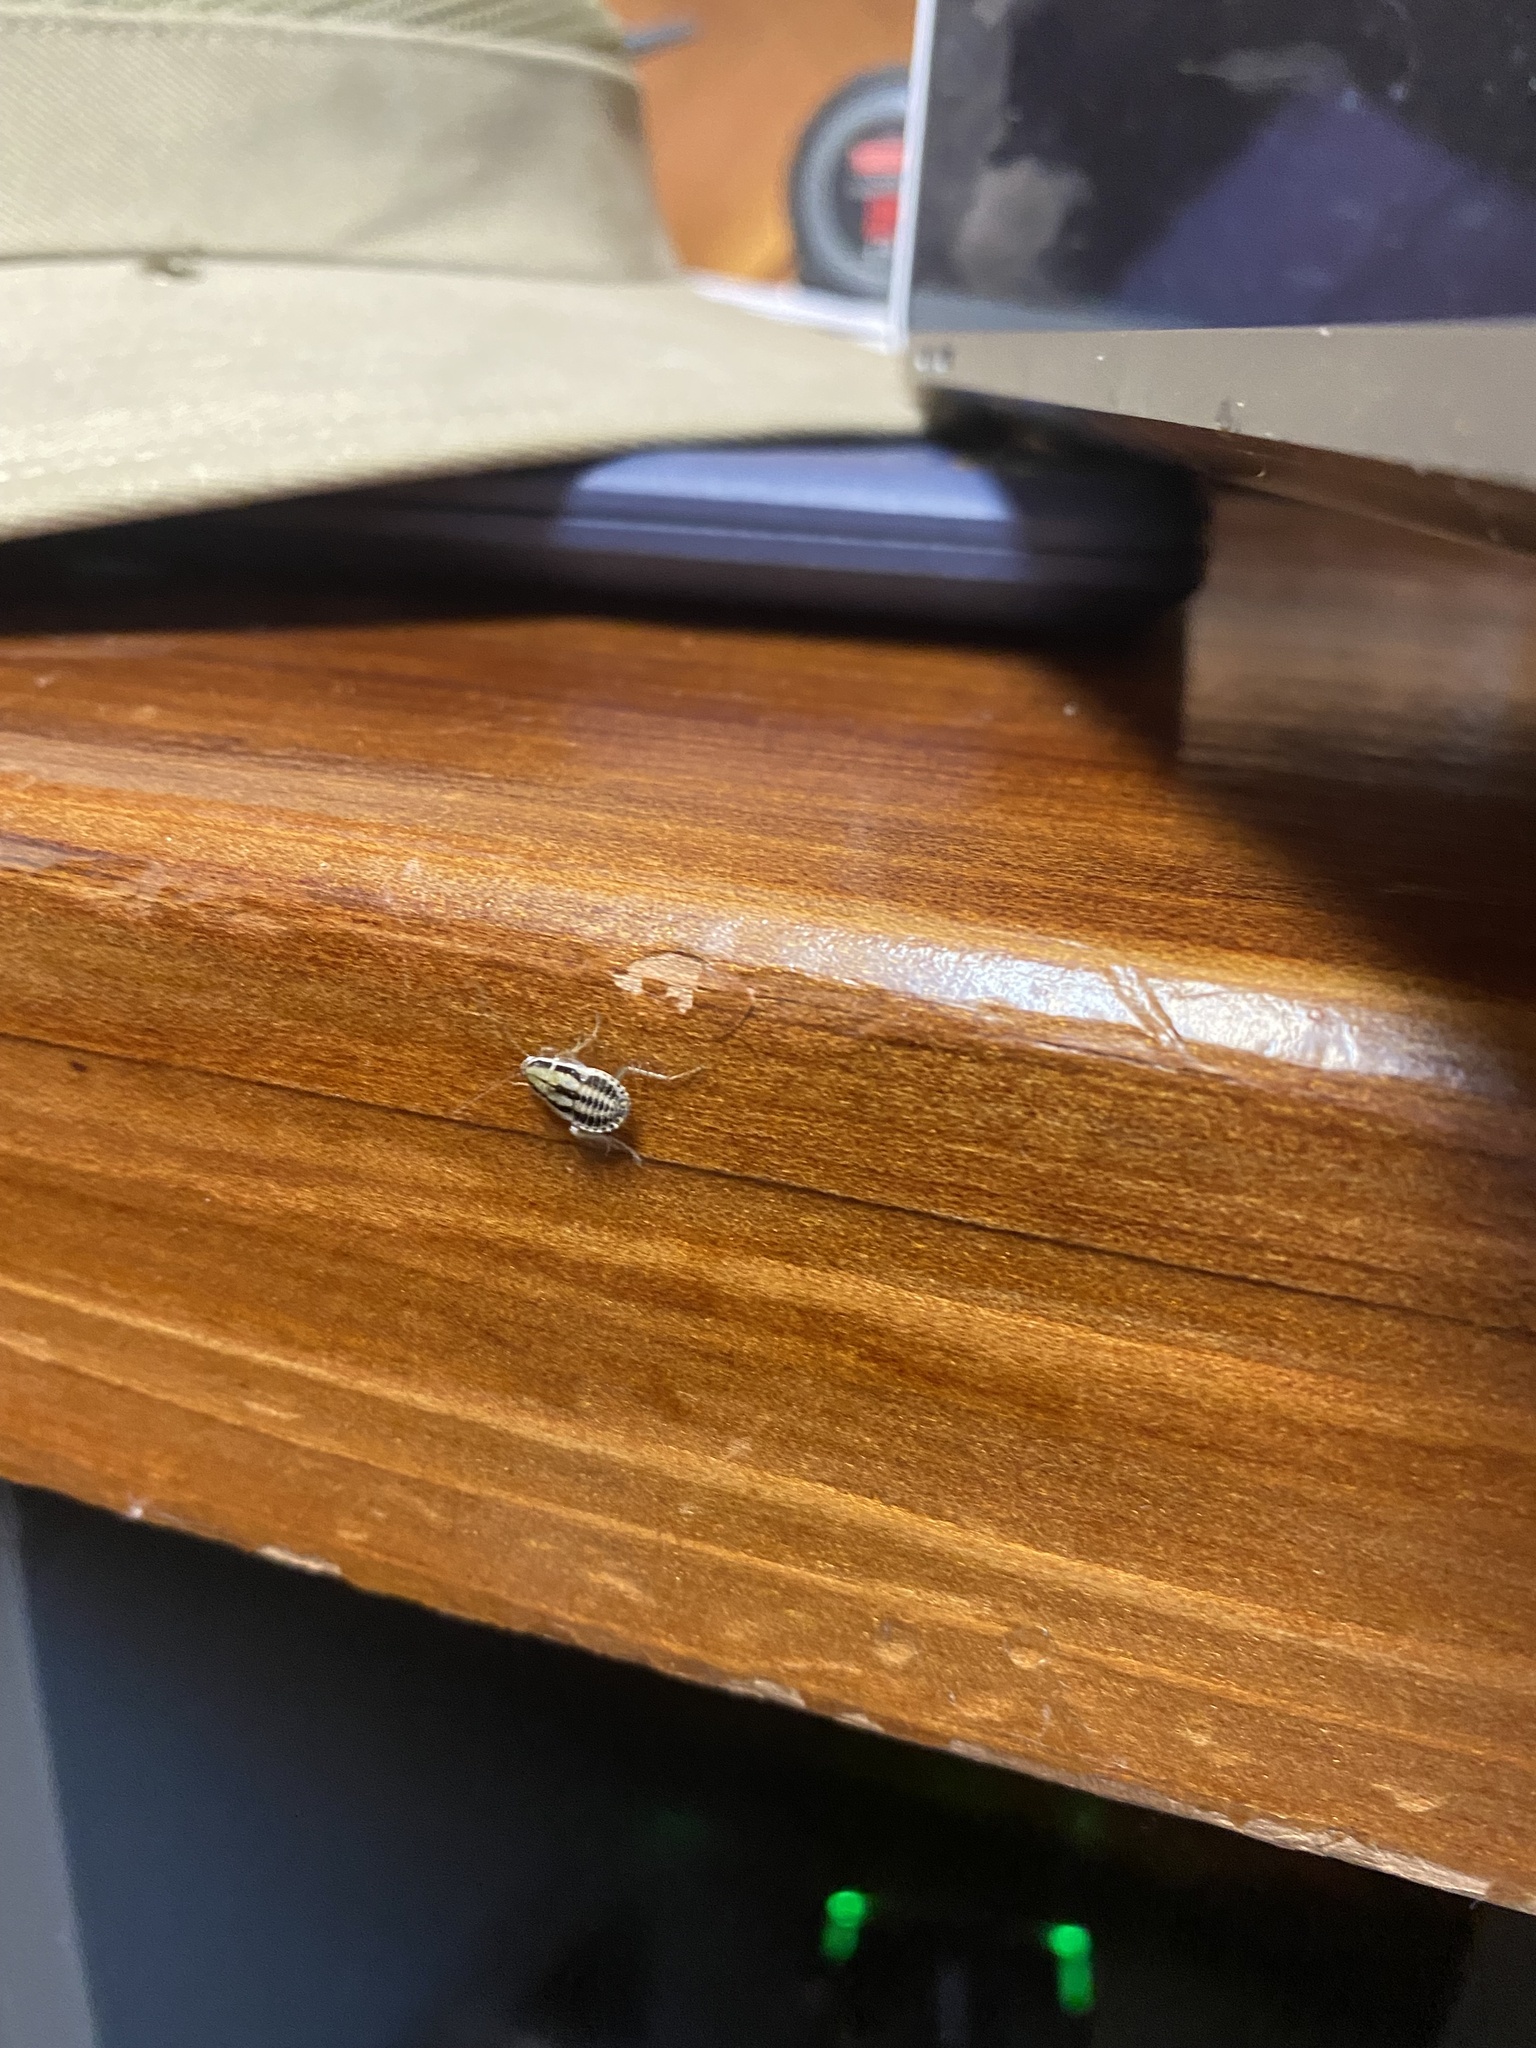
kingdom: Animalia
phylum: Arthropoda
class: Insecta
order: Blattodea
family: Ectobiidae
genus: Luridiblatta
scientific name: Luridiblatta trivittata
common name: Three-lined cockroach
